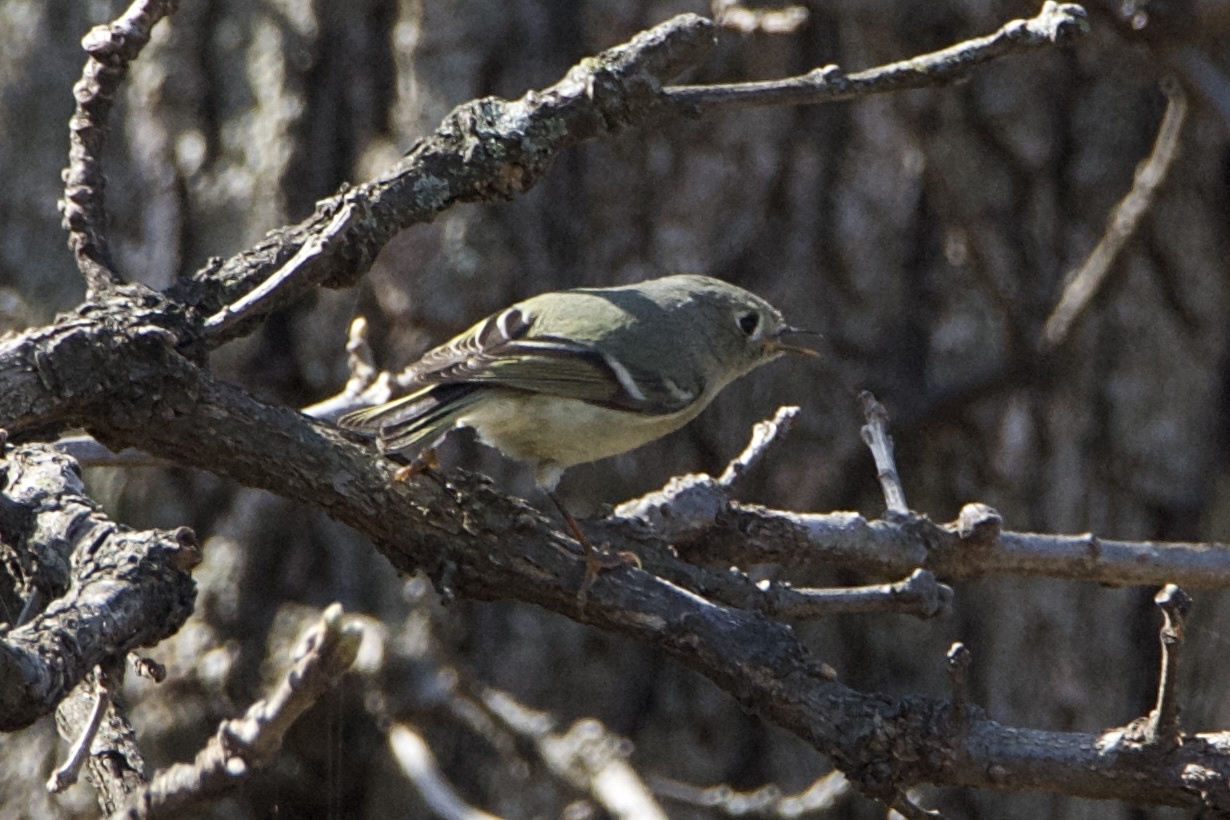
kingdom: Animalia
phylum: Chordata
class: Aves
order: Passeriformes
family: Regulidae
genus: Regulus
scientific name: Regulus calendula
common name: Ruby-crowned kinglet
